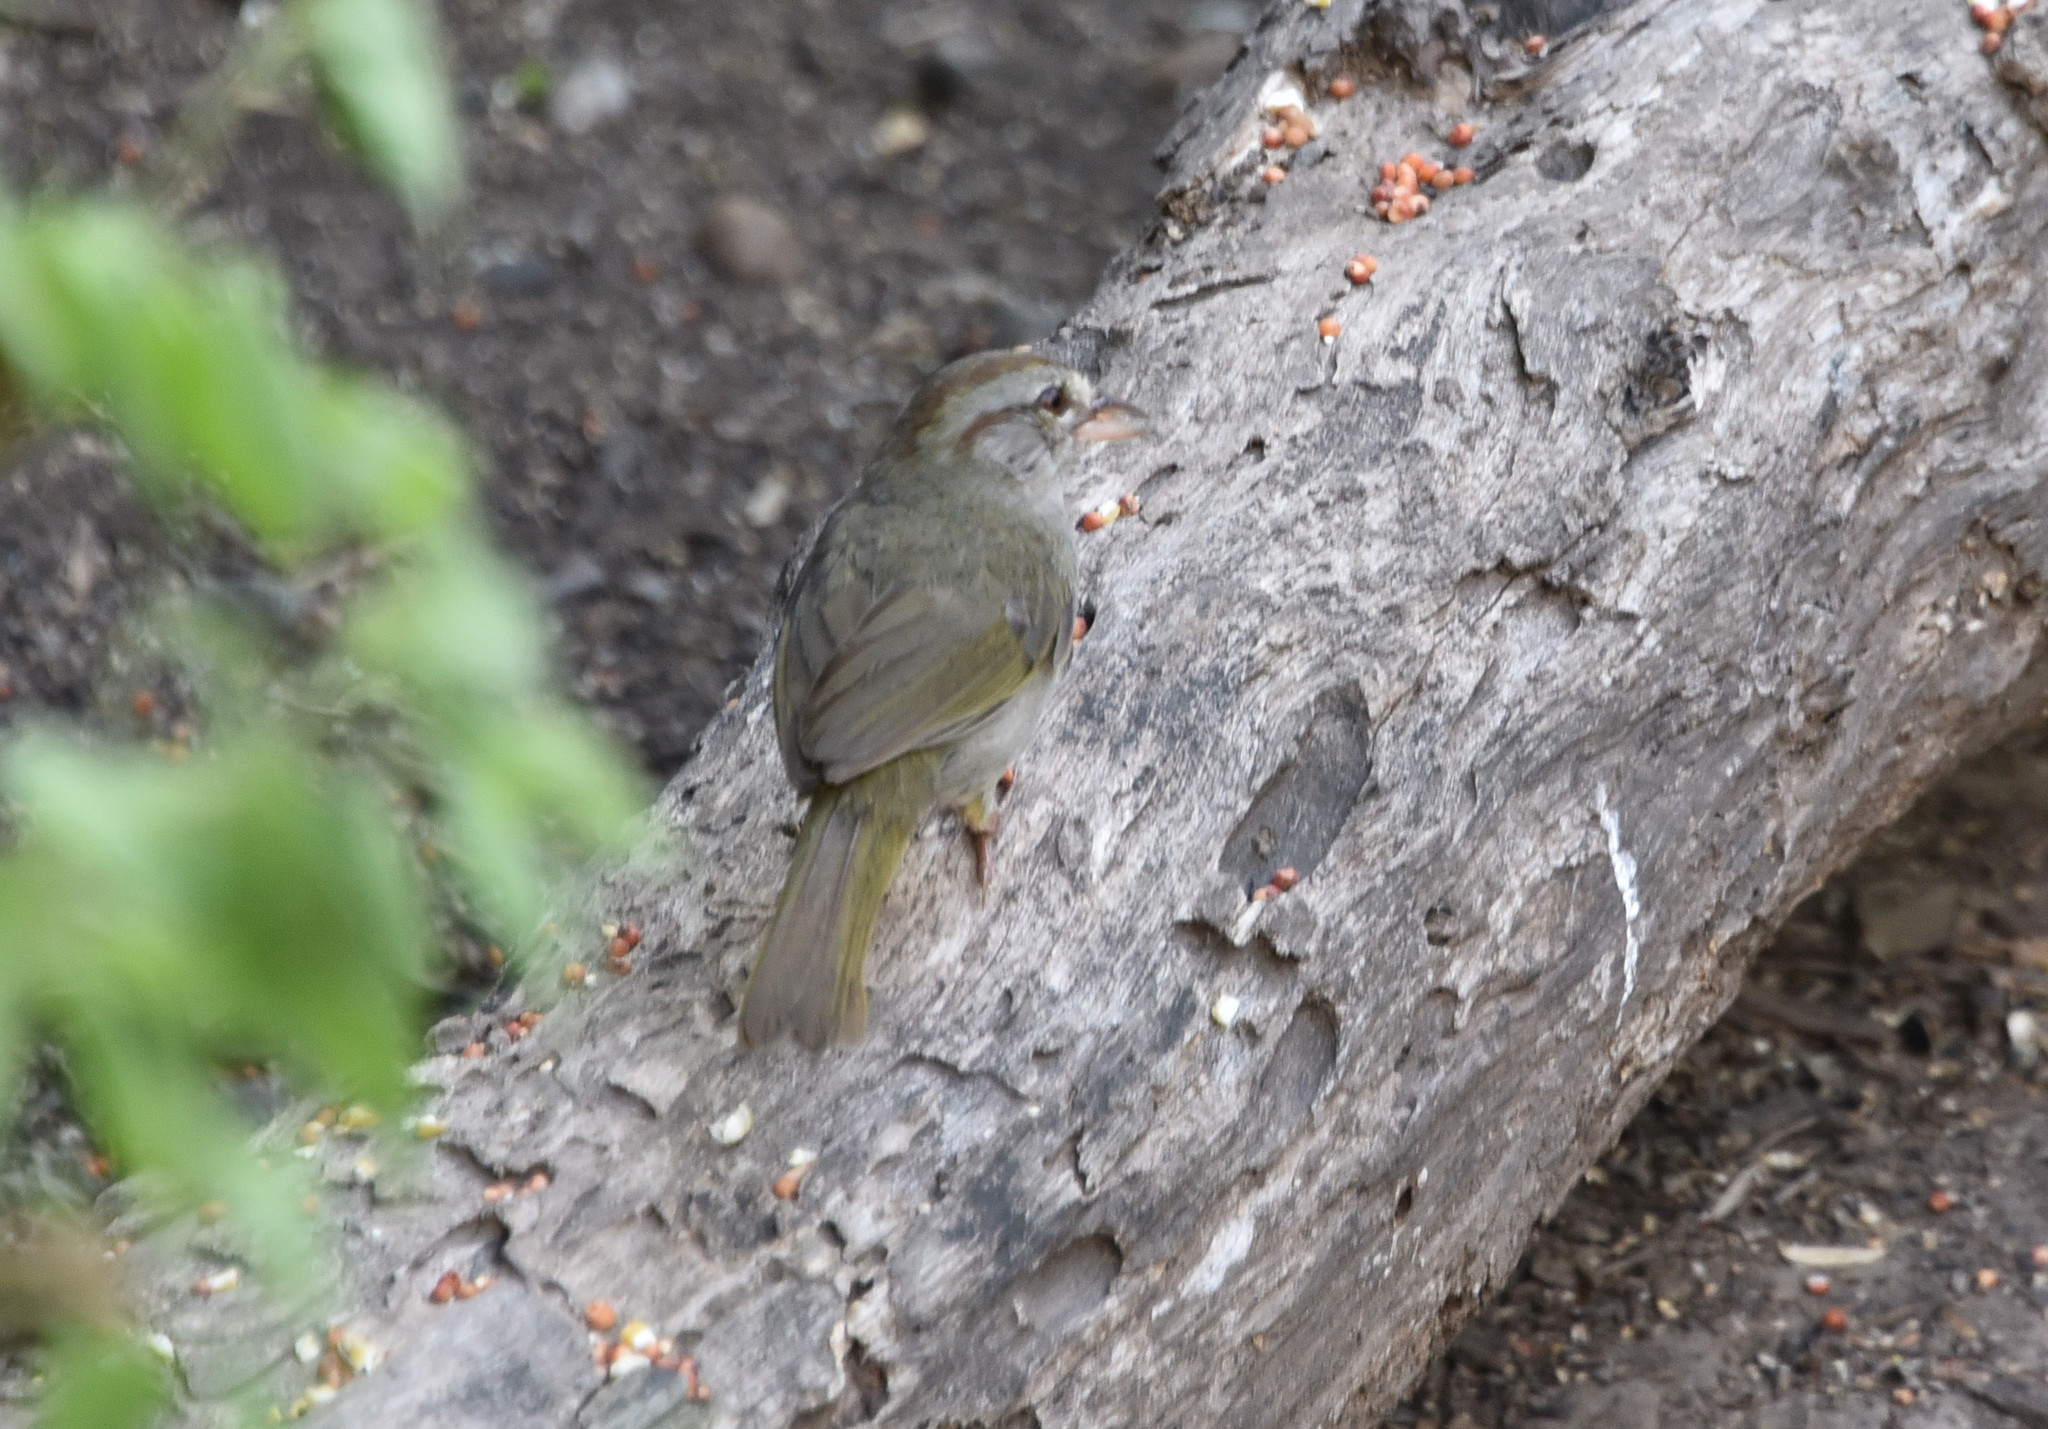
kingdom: Animalia
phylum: Chordata
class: Aves
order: Passeriformes
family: Passerellidae
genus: Arremonops
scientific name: Arremonops rufivirgatus
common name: Olive sparrow
